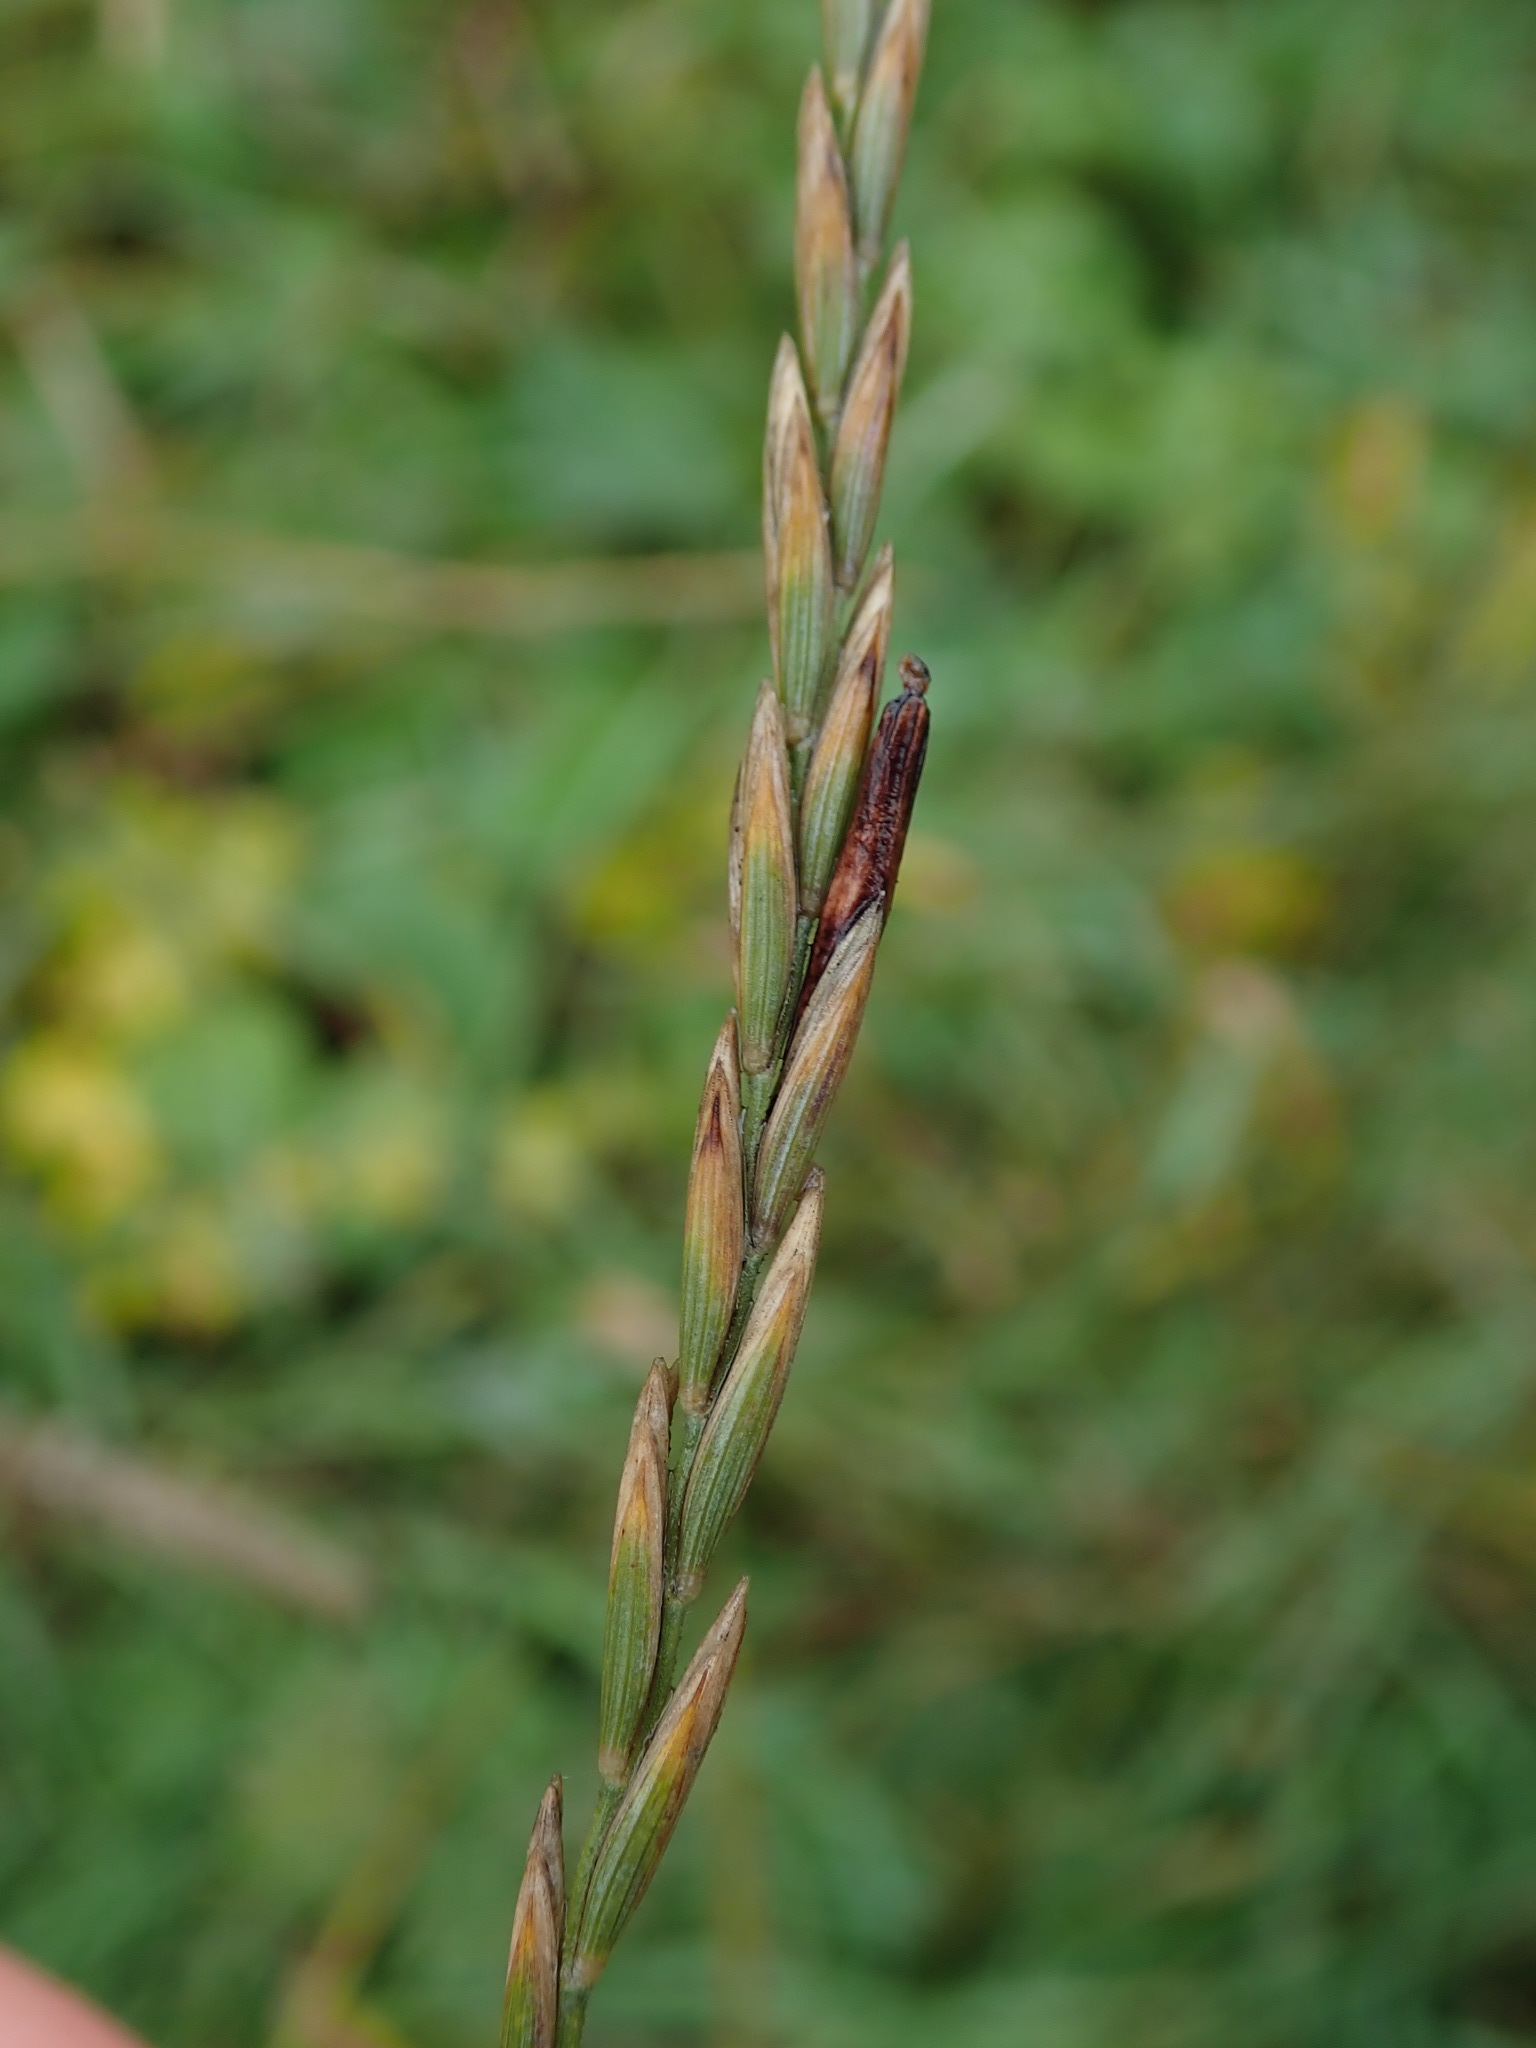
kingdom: Plantae
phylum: Tracheophyta
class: Liliopsida
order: Poales
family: Poaceae
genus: Elymus
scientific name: Elymus repens
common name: Quackgrass
